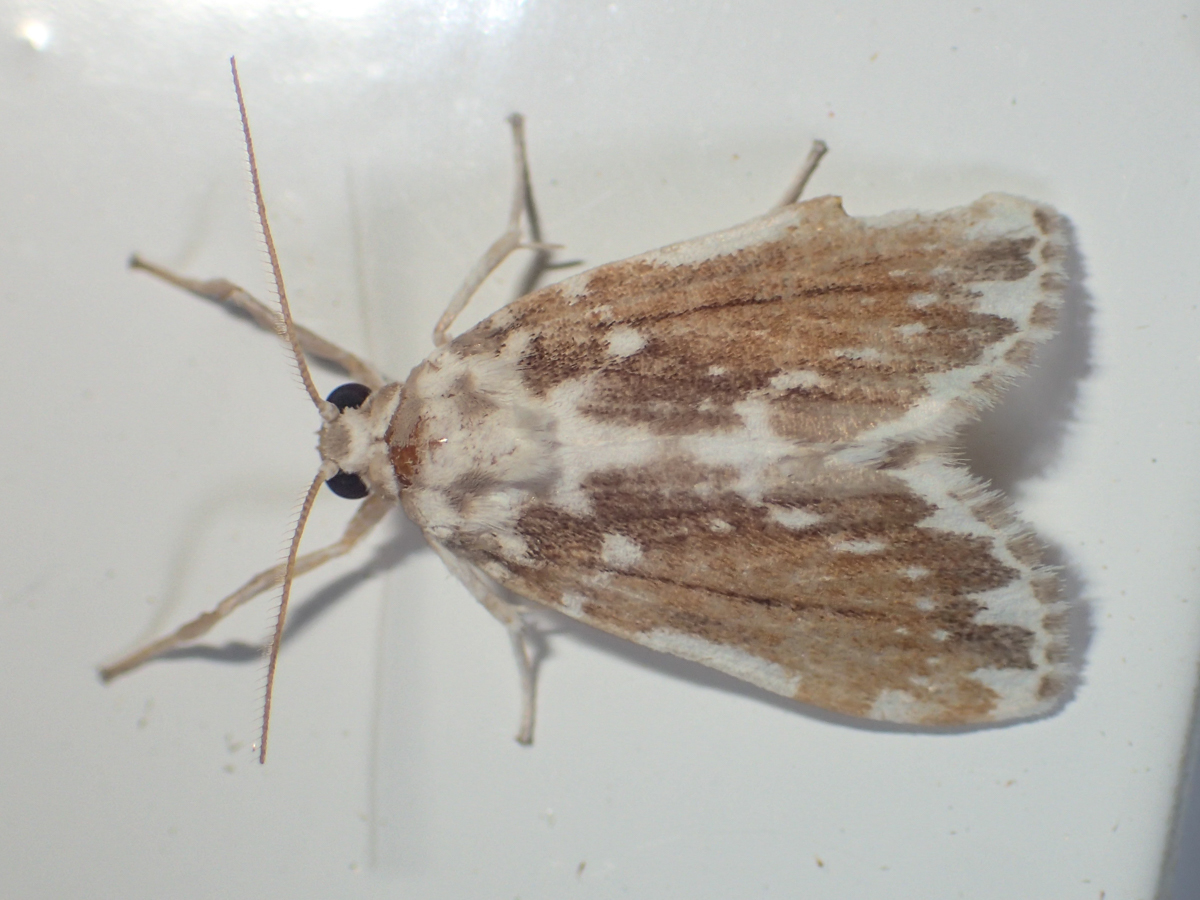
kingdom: Animalia
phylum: Arthropoda
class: Insecta
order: Lepidoptera
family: Erebidae
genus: Pseudoadites
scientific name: Pseudoadites frigida
